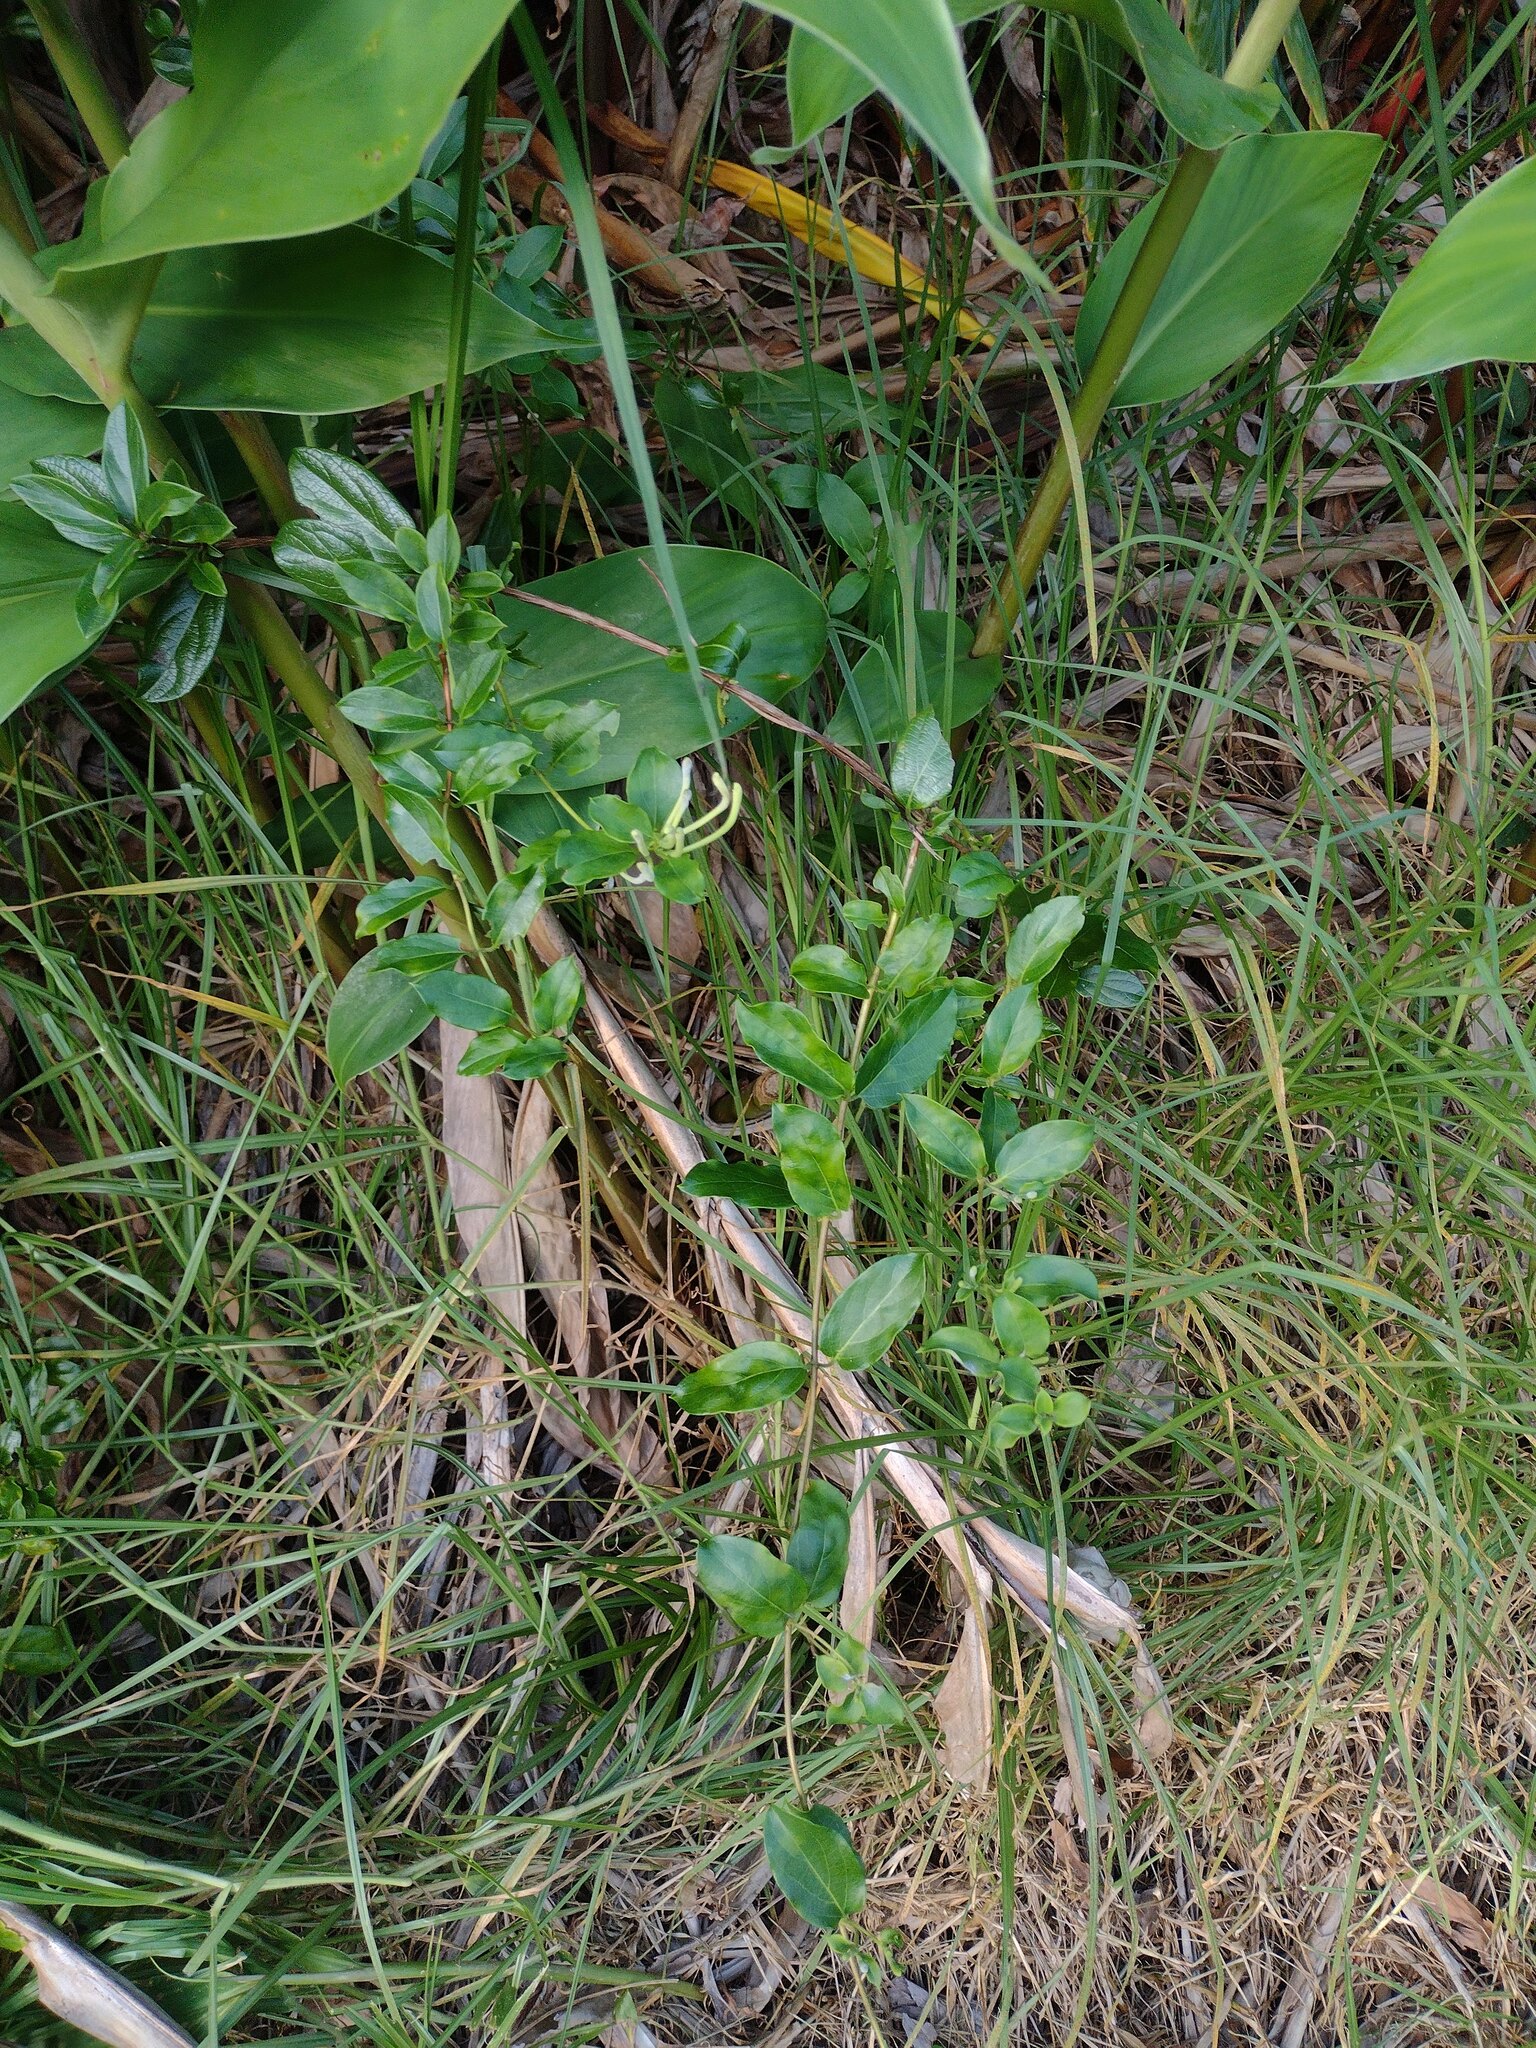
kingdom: Plantae
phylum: Tracheophyta
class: Magnoliopsida
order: Dipsacales
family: Caprifoliaceae
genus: Lonicera
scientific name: Lonicera japonica
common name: Japanese honeysuckle
